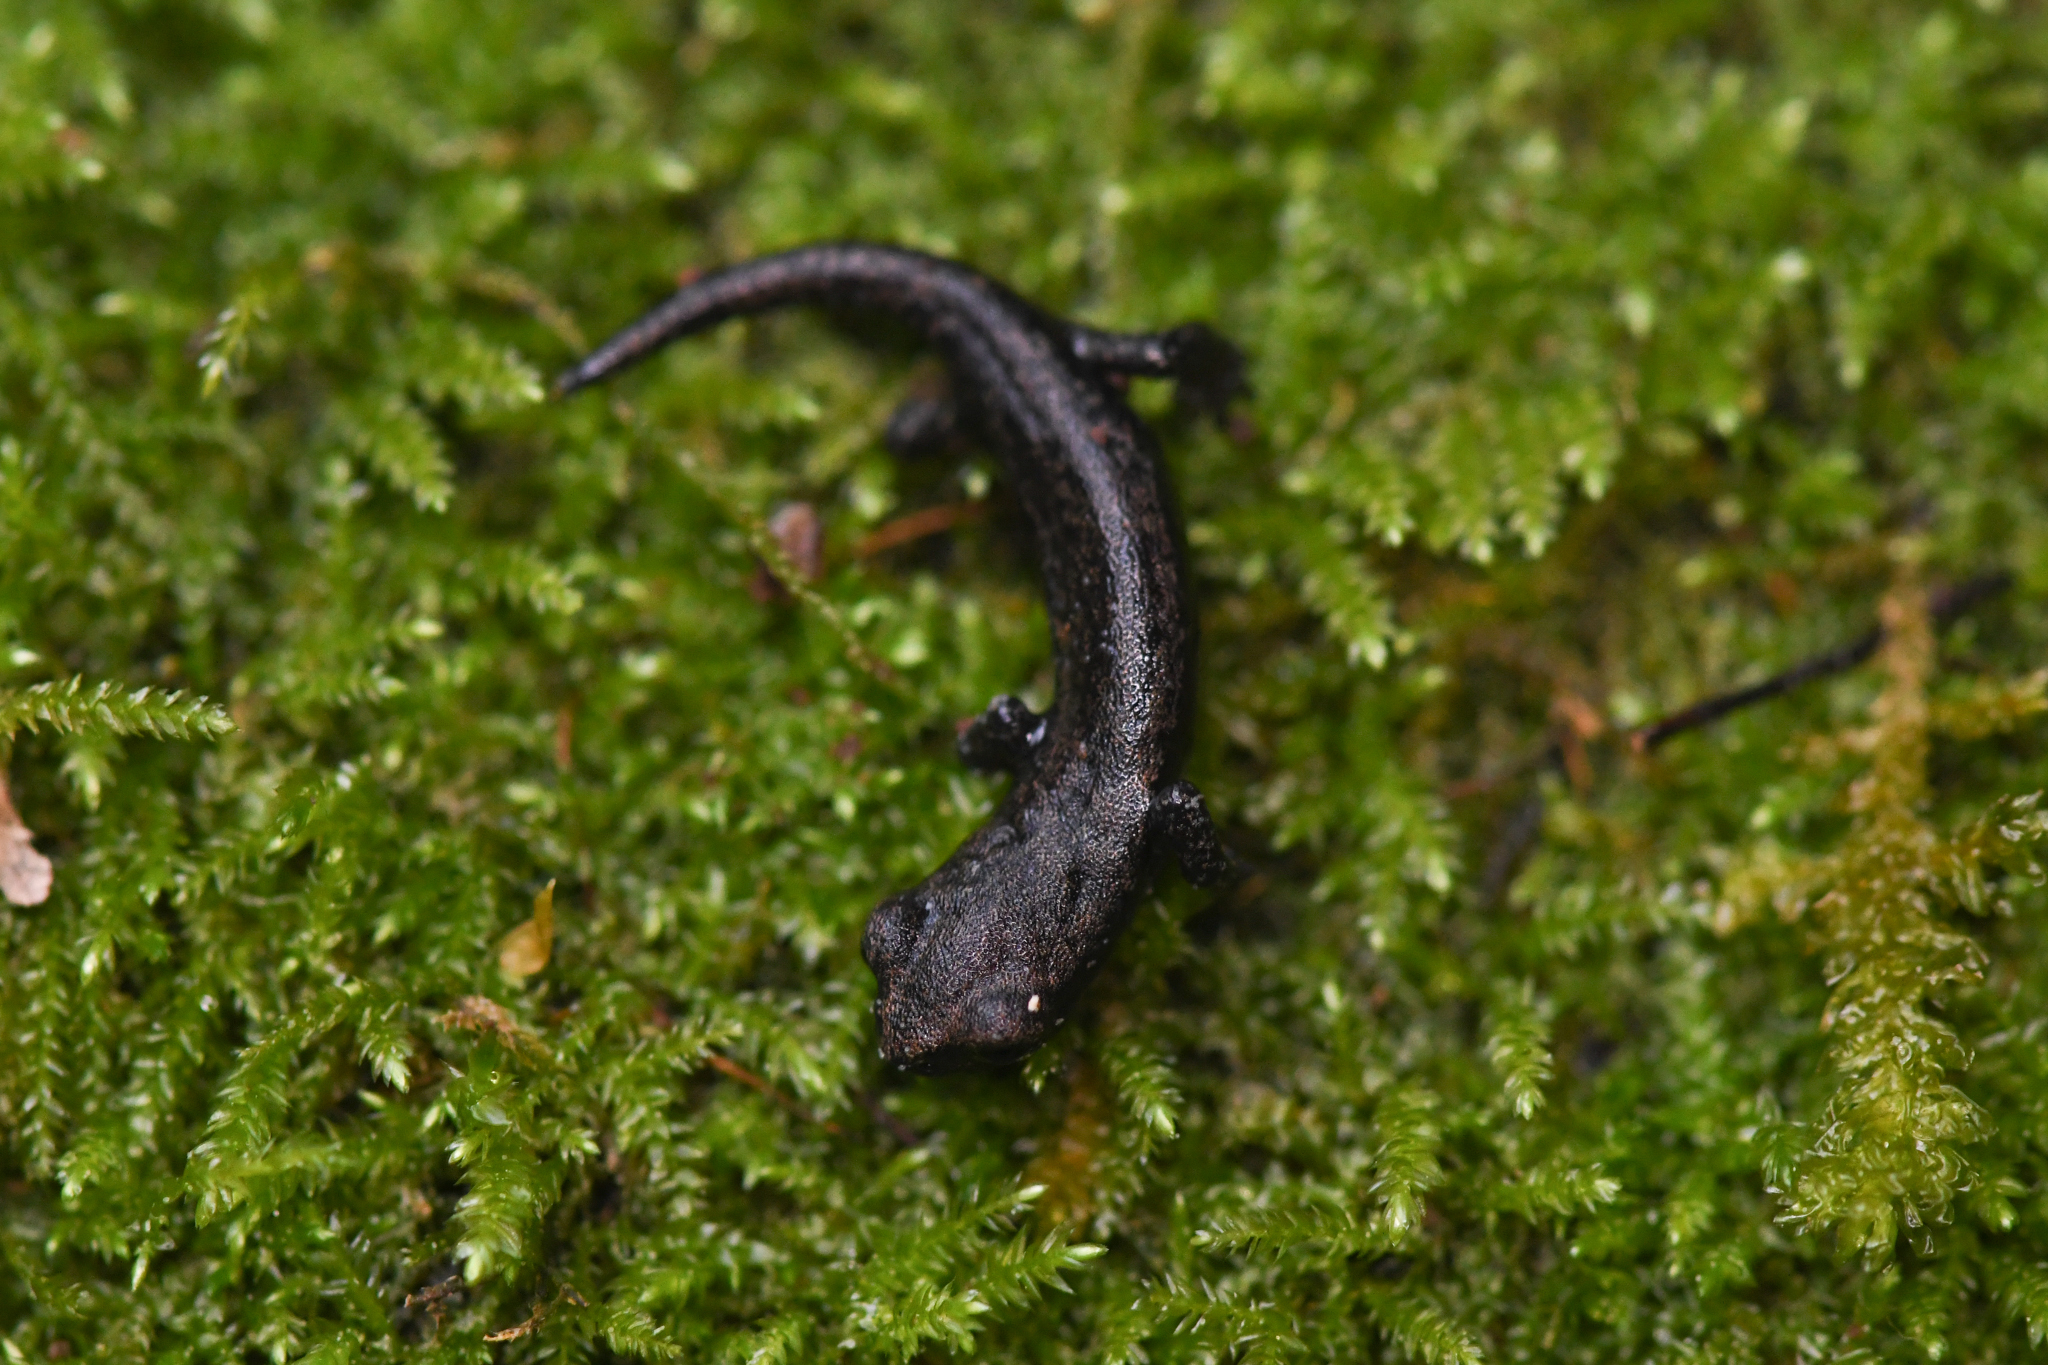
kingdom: Animalia
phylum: Chordata
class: Amphibia
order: Caudata
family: Plethodontidae
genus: Hydromantes
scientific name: Hydromantes shastae
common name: Shasta salamander
